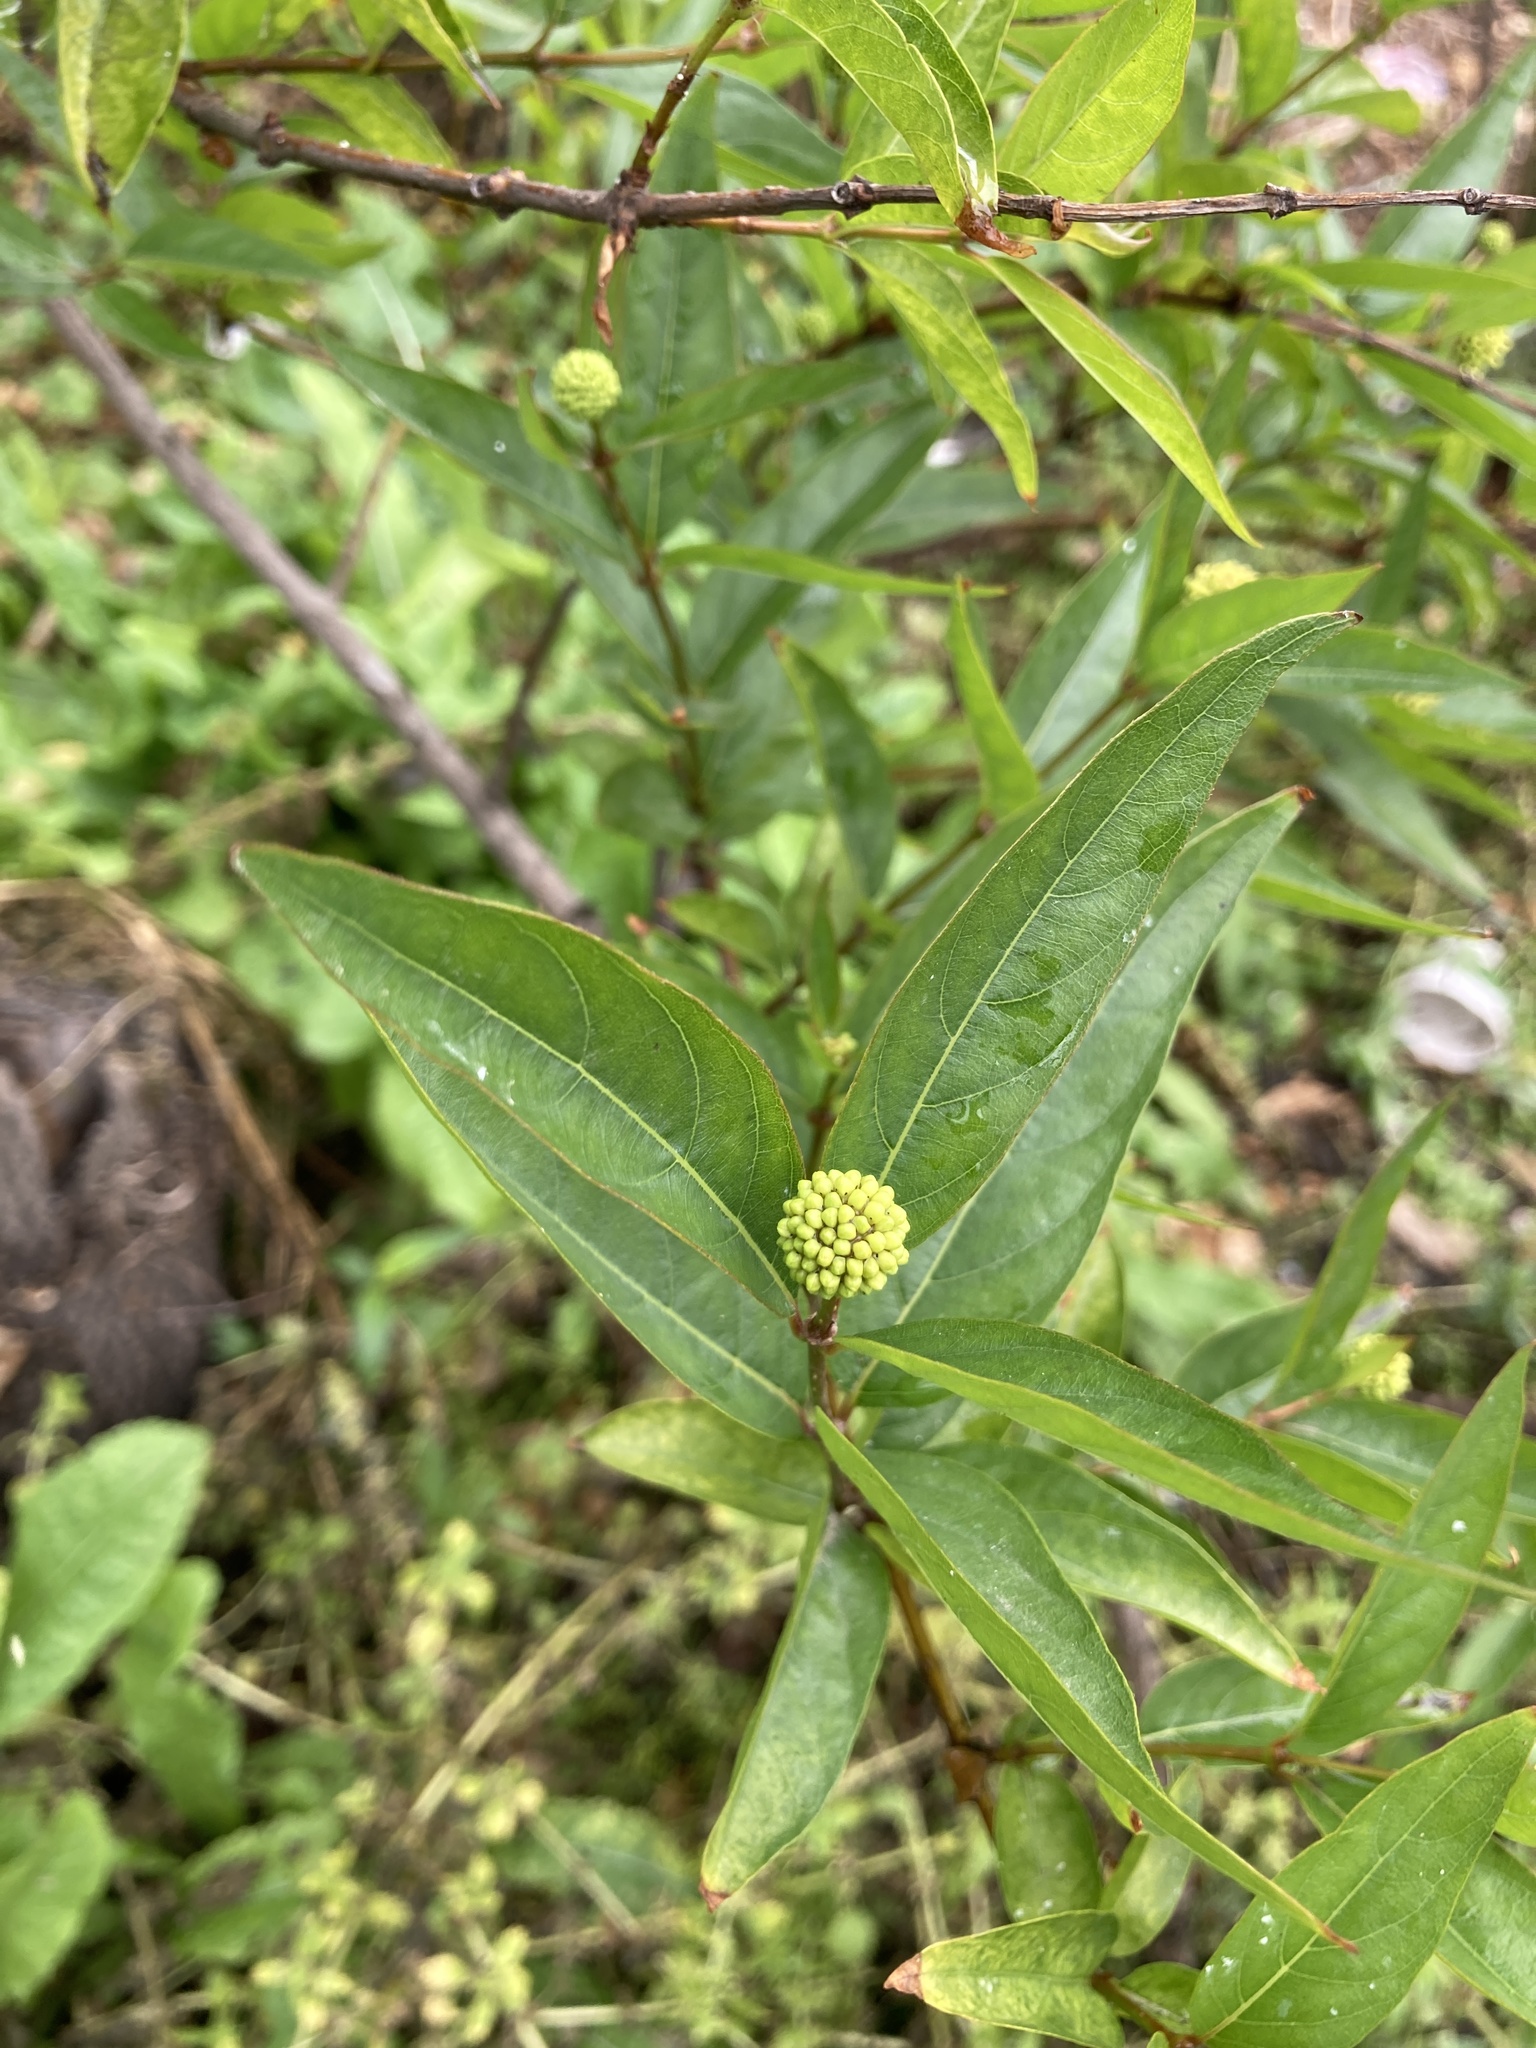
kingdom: Plantae
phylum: Tracheophyta
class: Magnoliopsida
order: Gentianales
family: Rubiaceae
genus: Cephalanthus
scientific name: Cephalanthus glabratus
